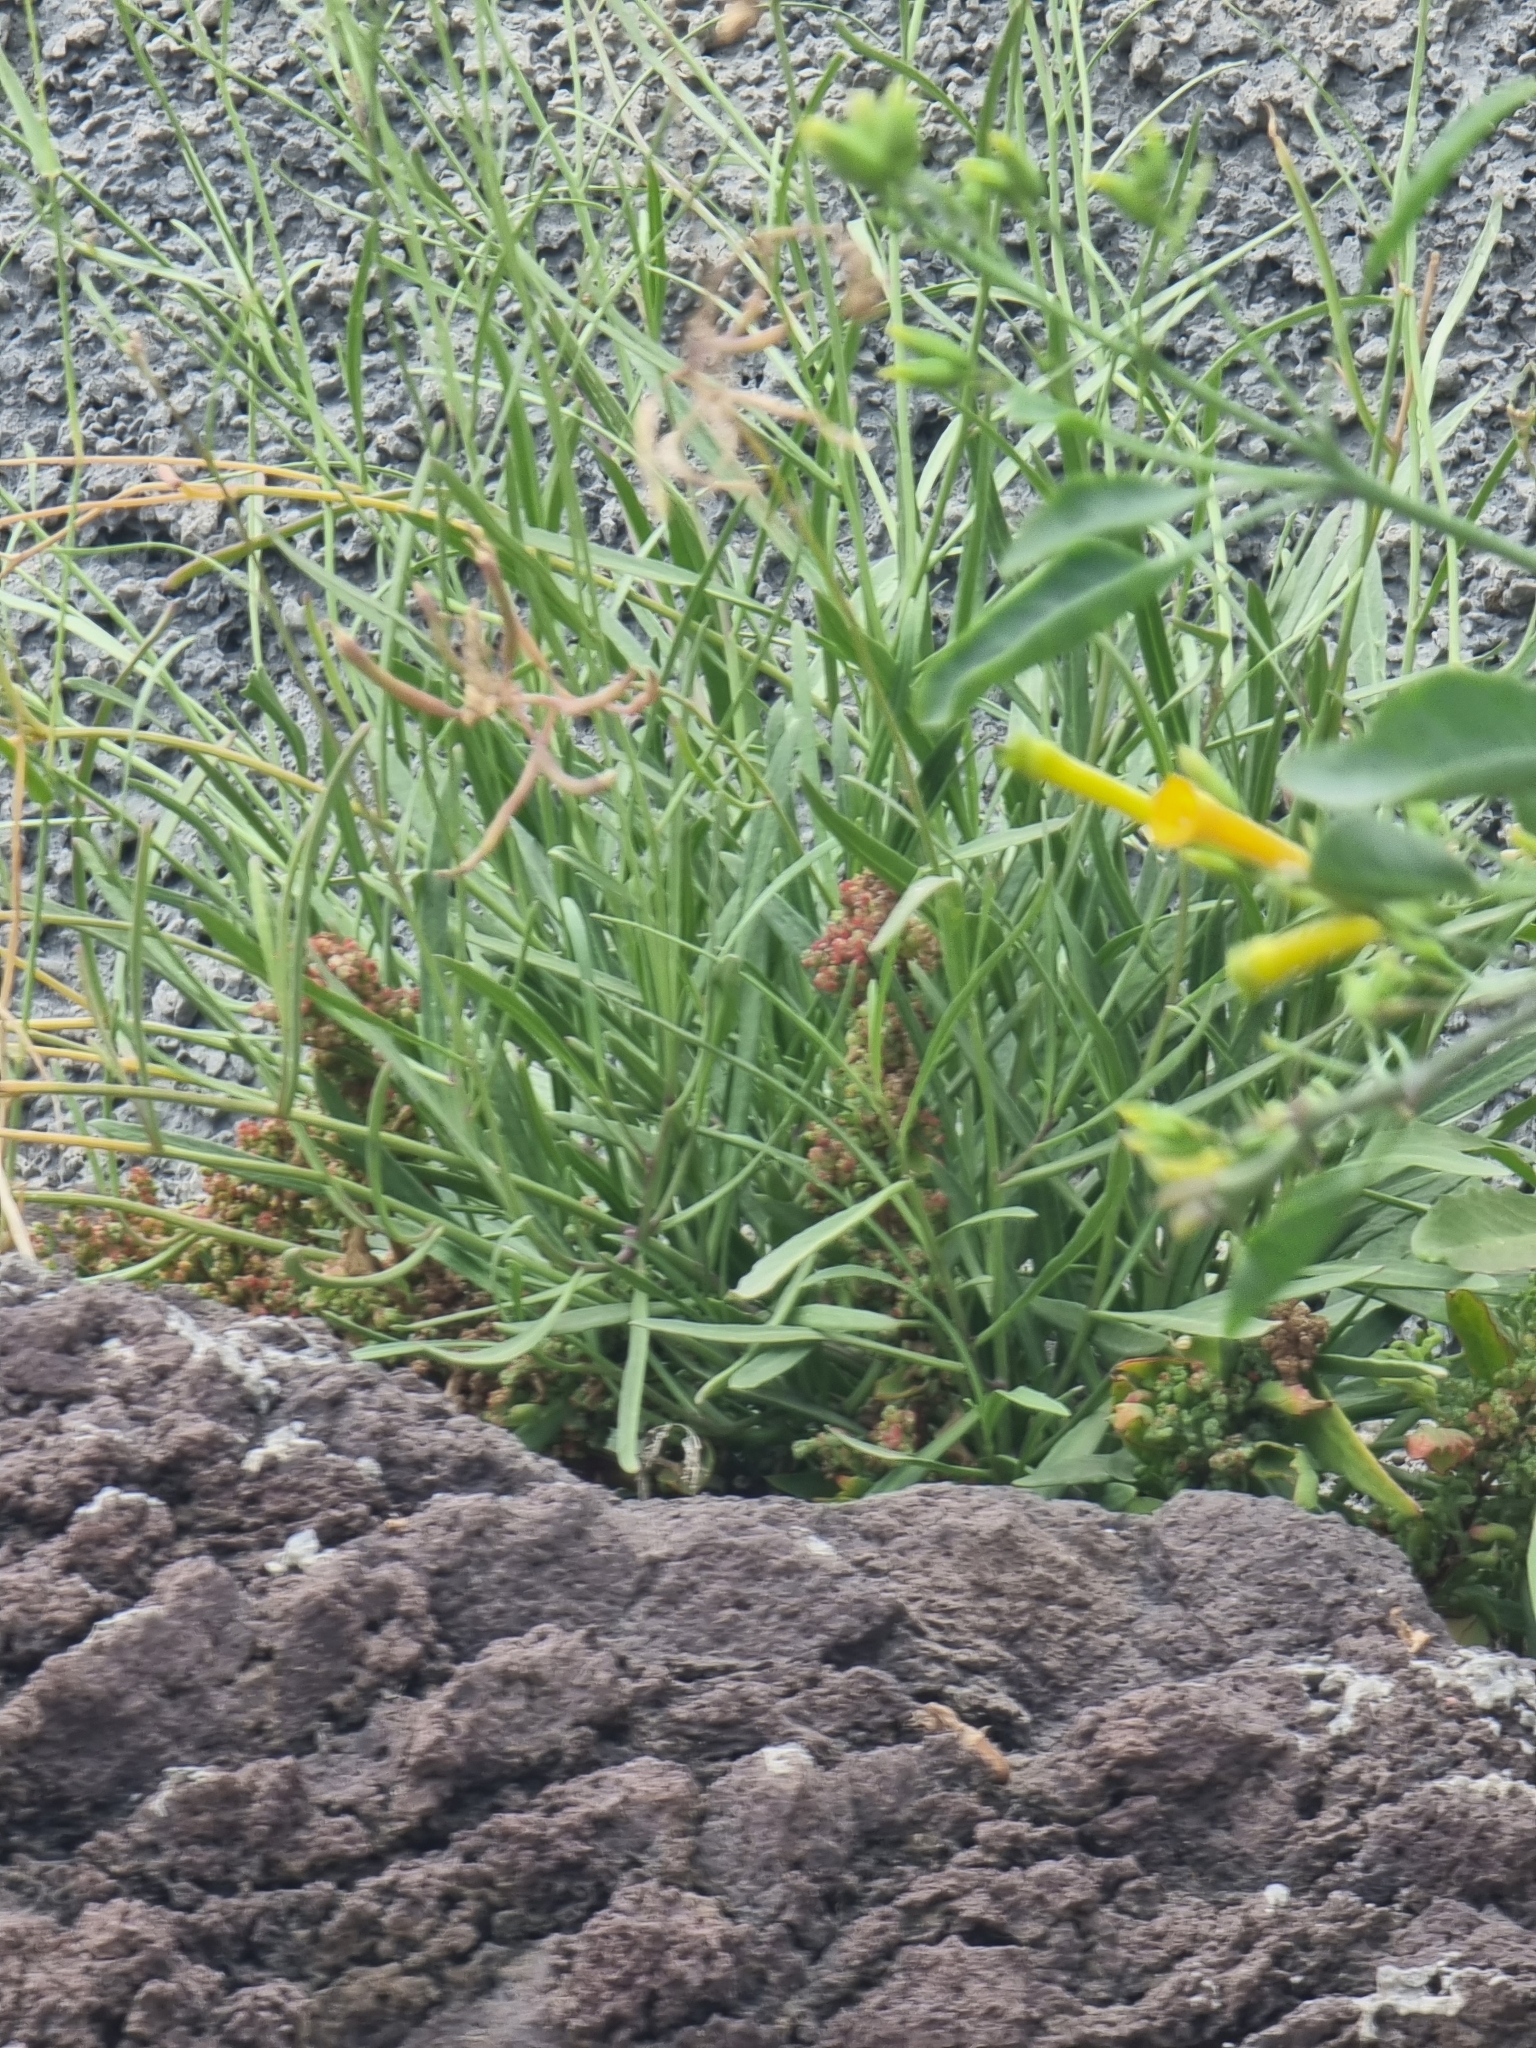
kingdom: Plantae
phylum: Tracheophyta
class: Magnoliopsida
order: Brassicales
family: Brassicaceae
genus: Sinapidendron
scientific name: Sinapidendron angustifolium
